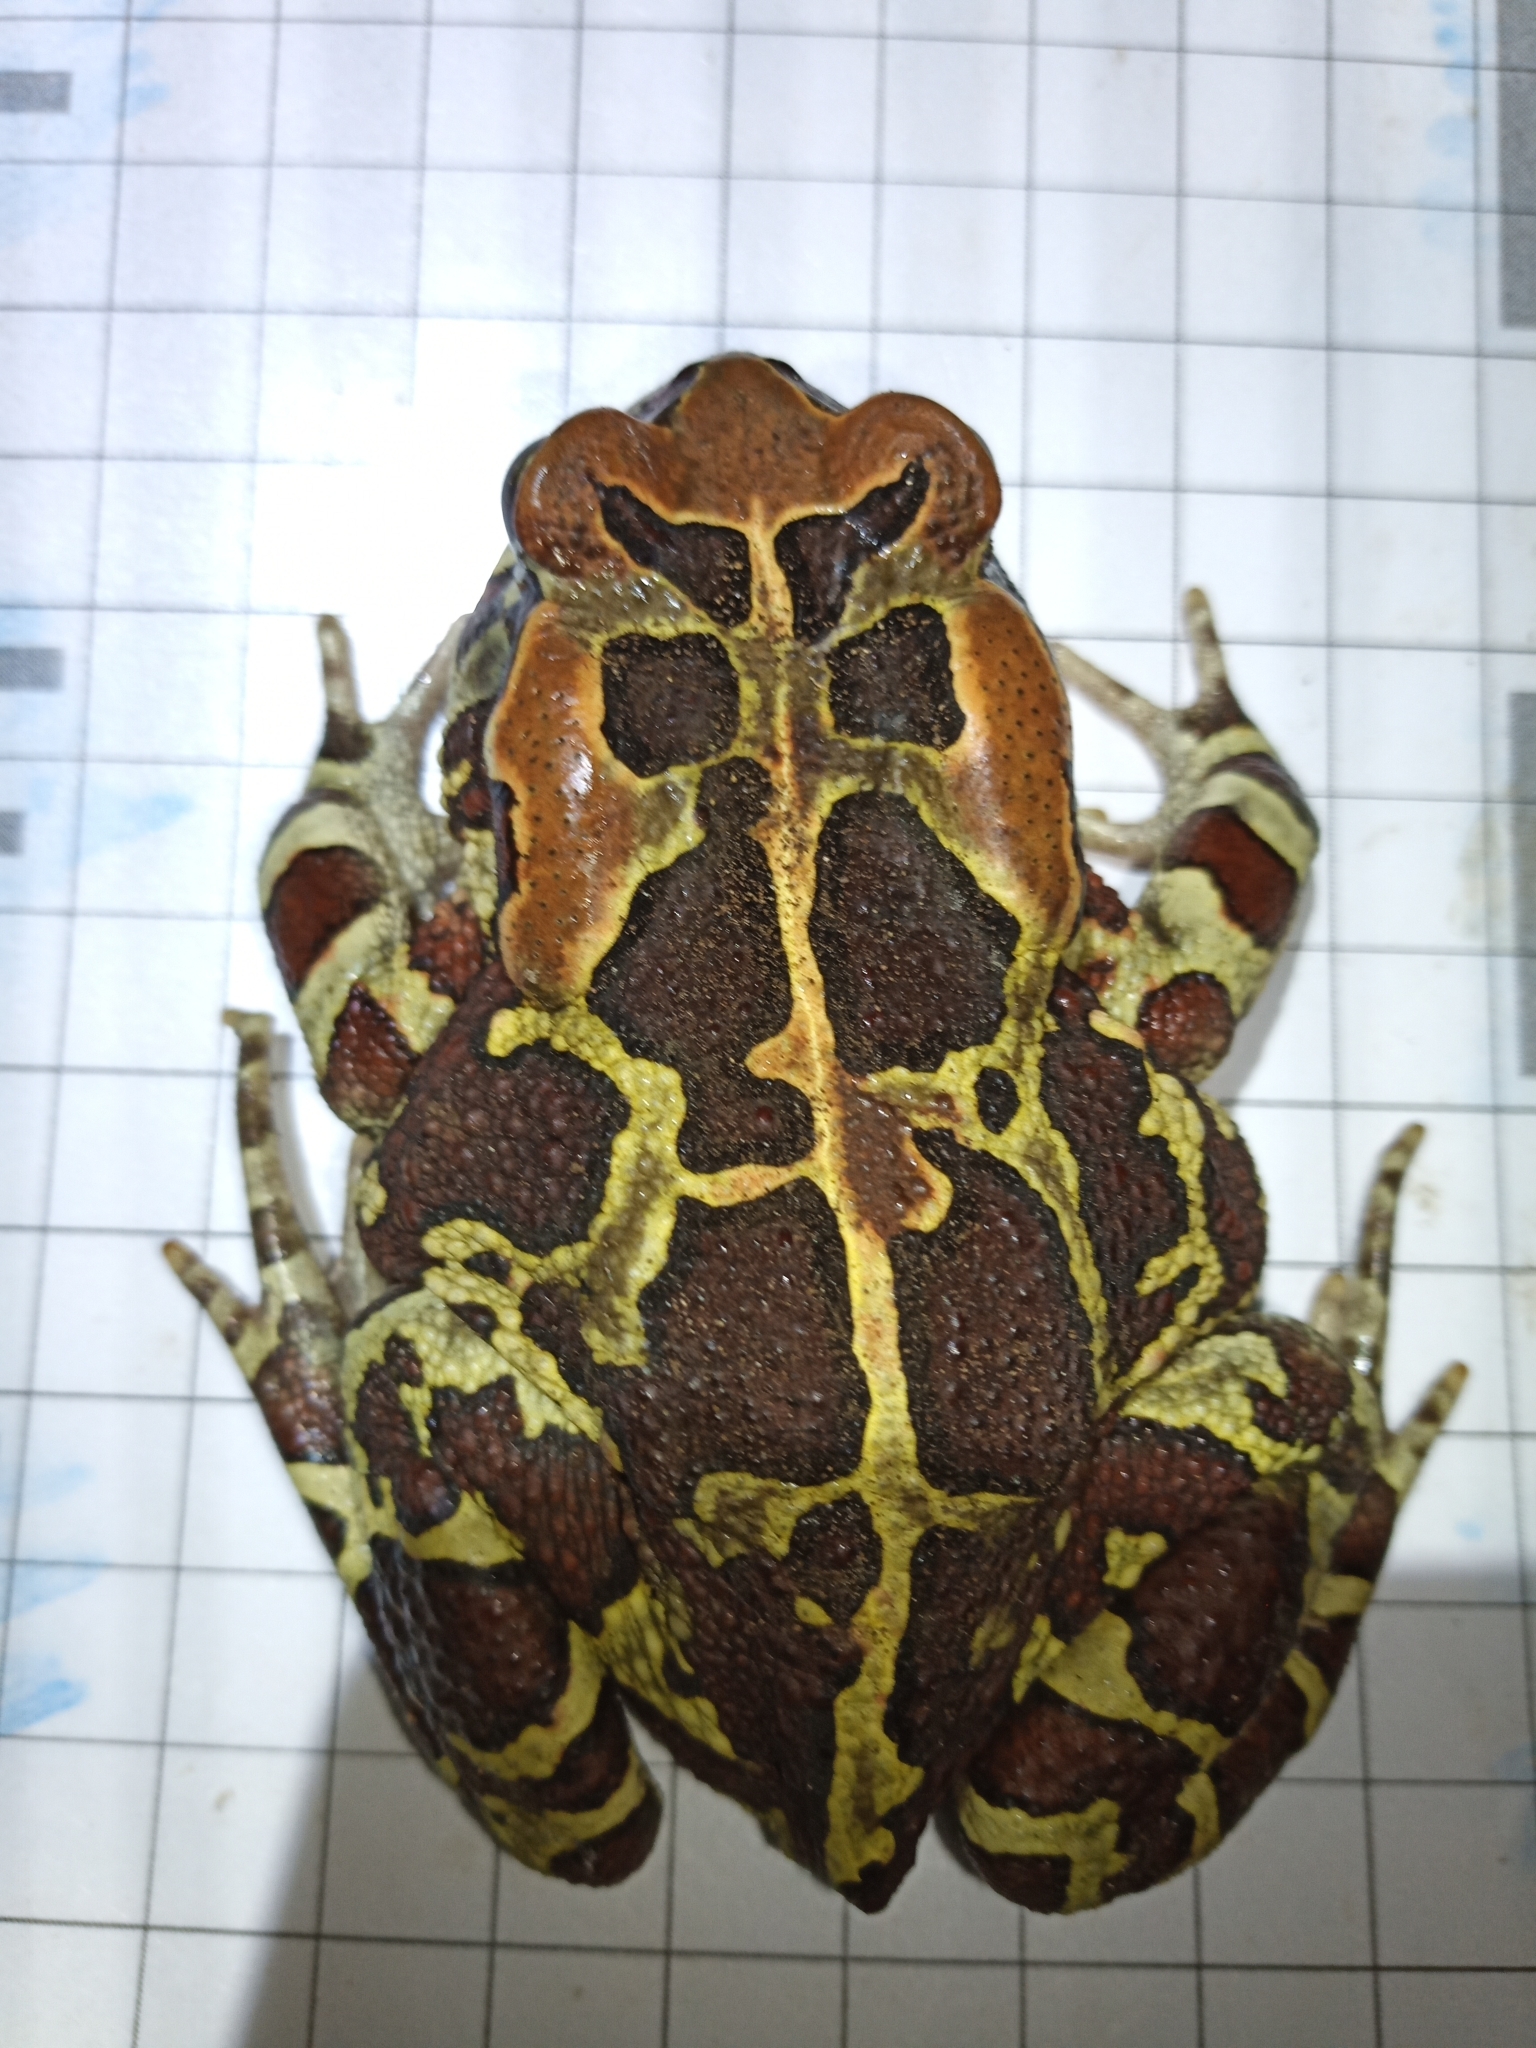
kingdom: Animalia
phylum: Chordata
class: Amphibia
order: Anura
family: Bufonidae
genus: Sclerophrys
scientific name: Sclerophrys pantherina
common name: Panther toad
